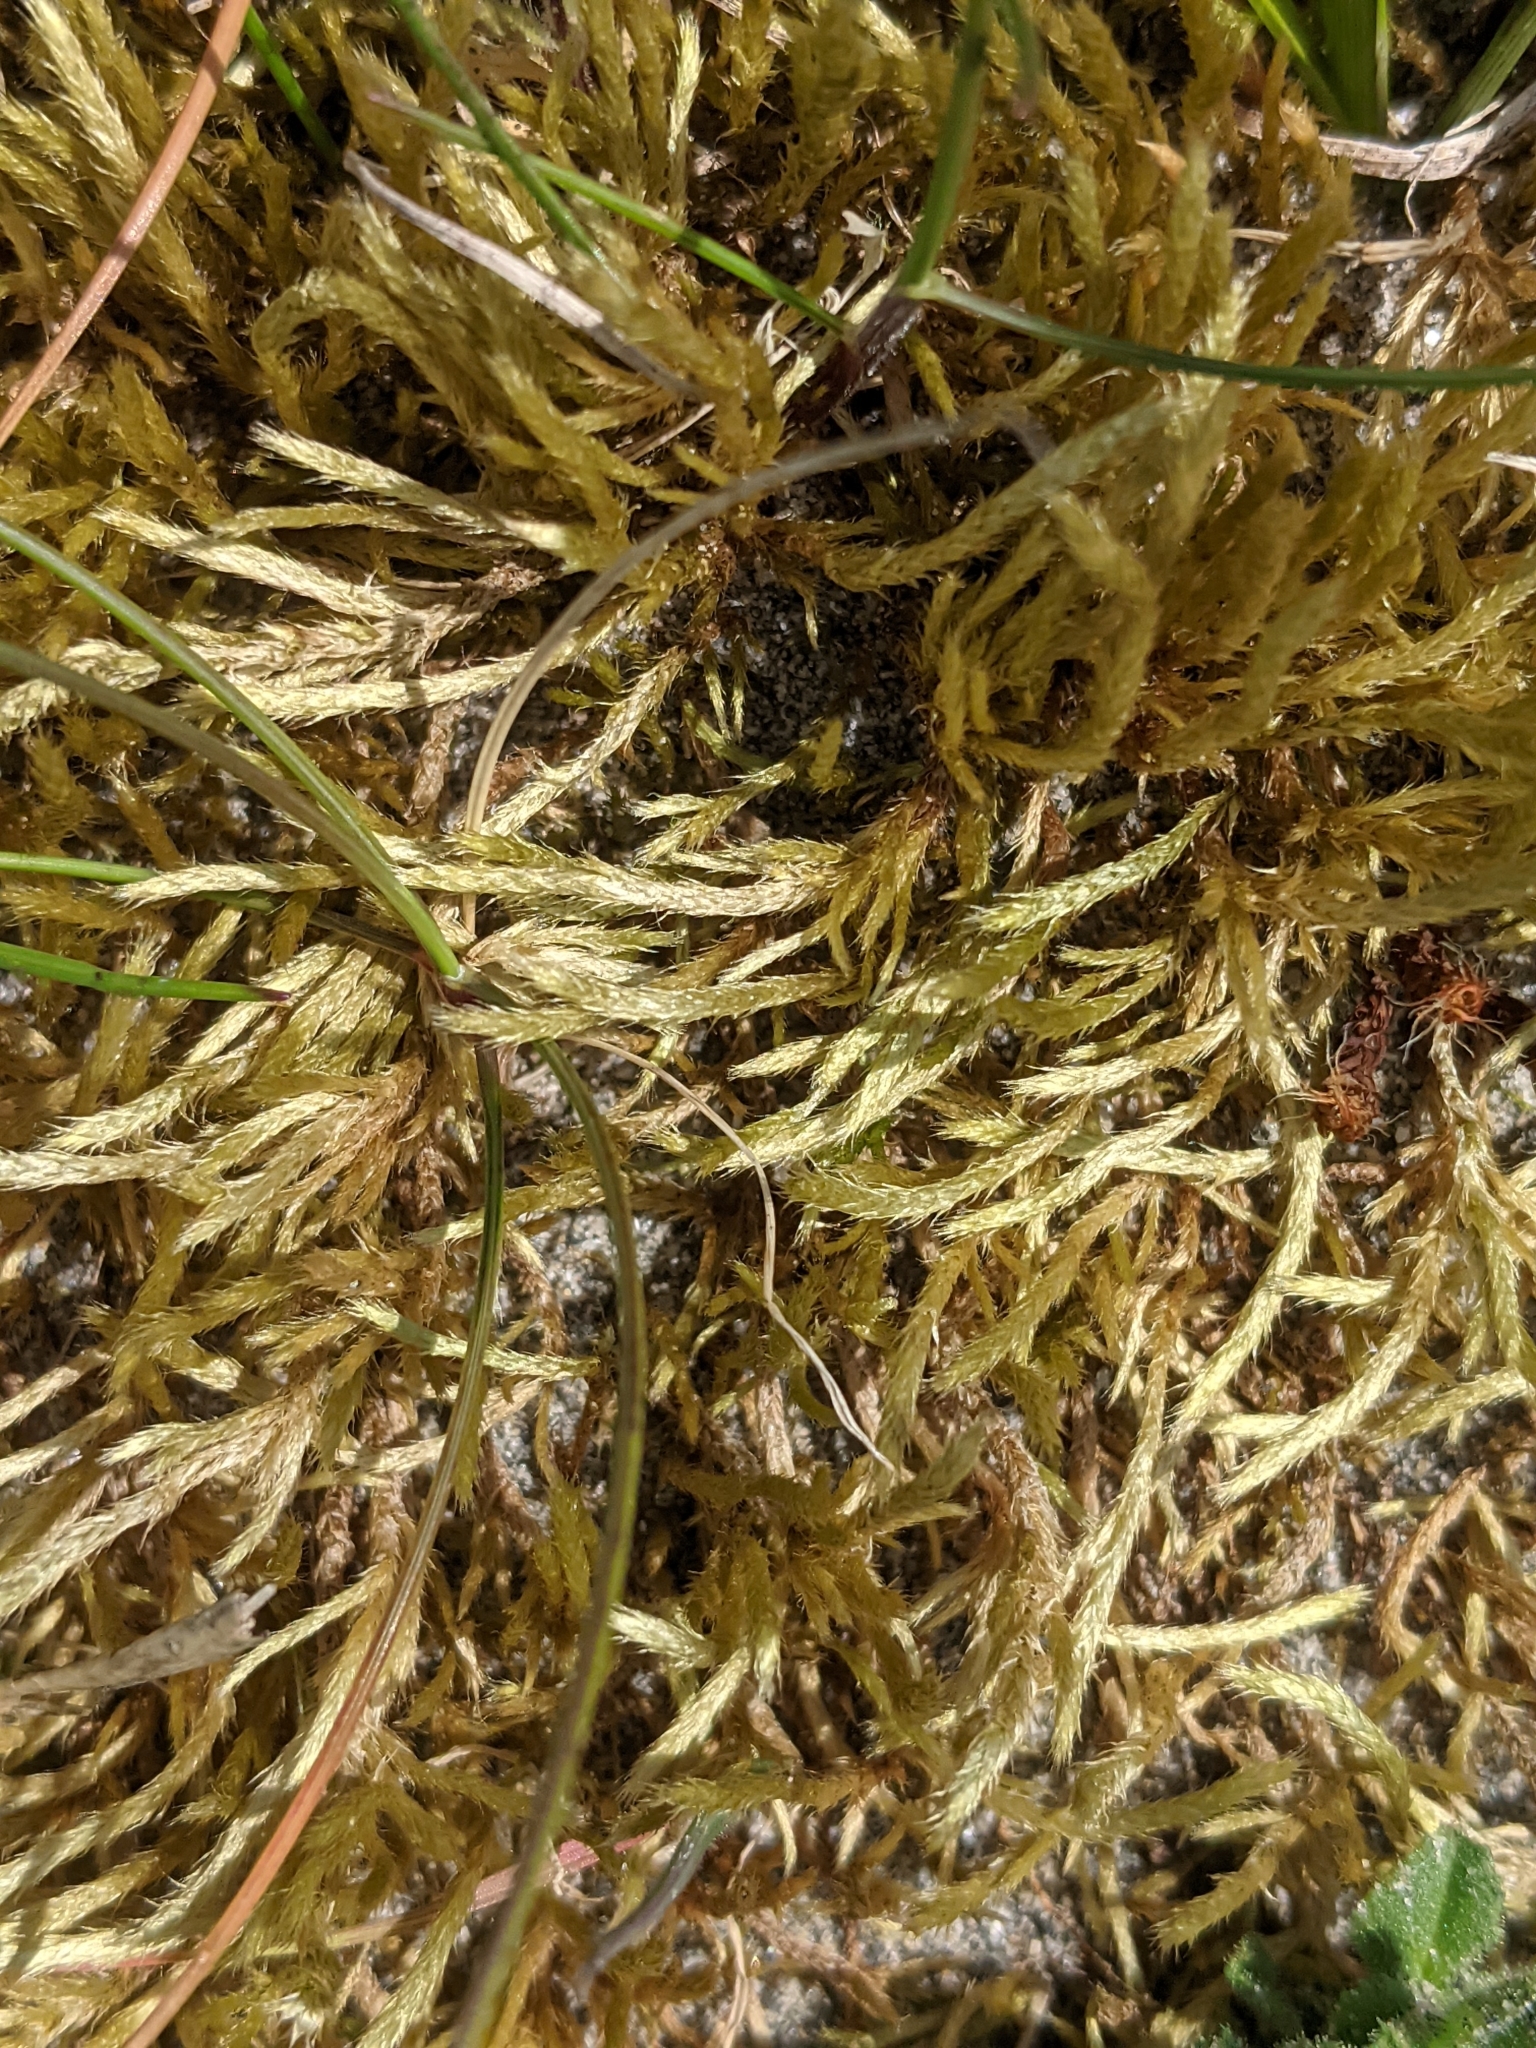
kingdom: Plantae
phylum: Bryophyta
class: Bryopsida
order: Hypnales
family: Brachytheciaceae
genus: Brachythecium
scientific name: Brachythecium albicans
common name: Whitish ragged moss
